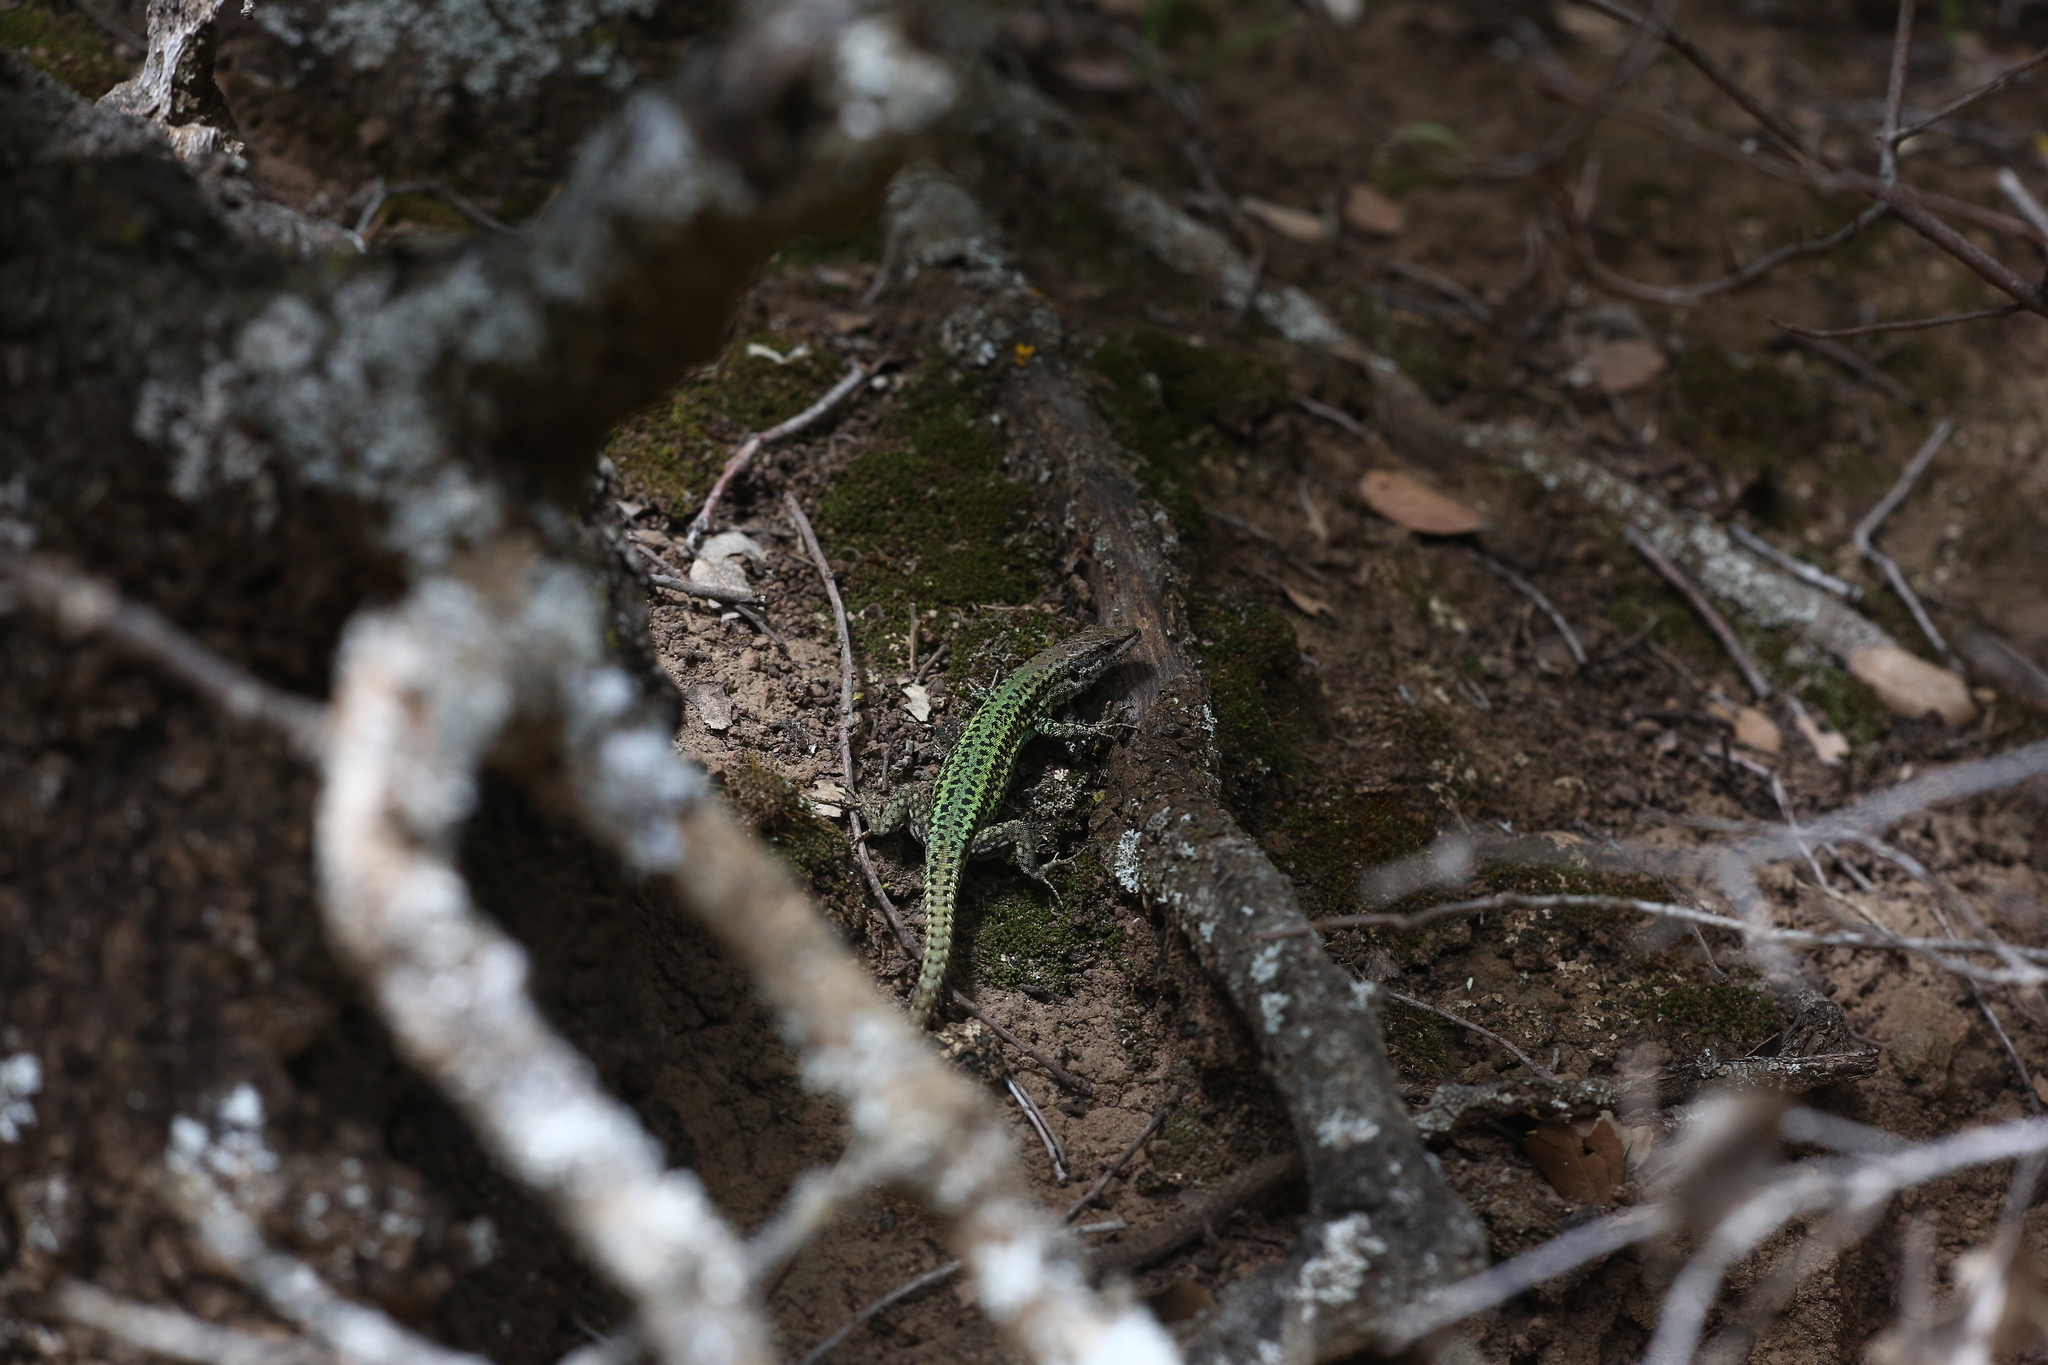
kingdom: Animalia
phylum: Chordata
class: Squamata
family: Lacertidae
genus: Podarcis
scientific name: Podarcis vaucheri
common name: Vaucher's wall lizard
